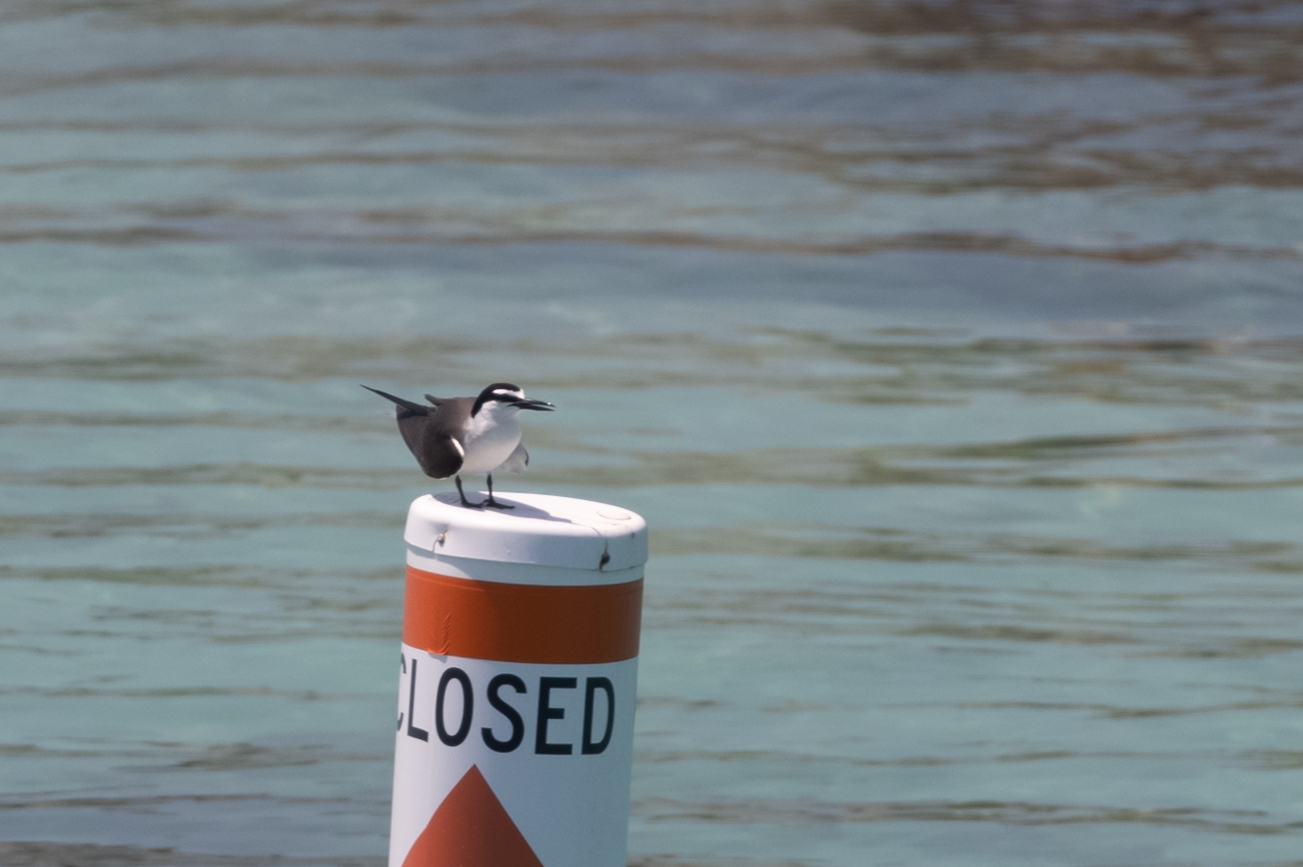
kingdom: Animalia
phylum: Chordata
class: Aves
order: Charadriiformes
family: Laridae
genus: Onychoprion
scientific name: Onychoprion anaethetus
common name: Bridled tern
